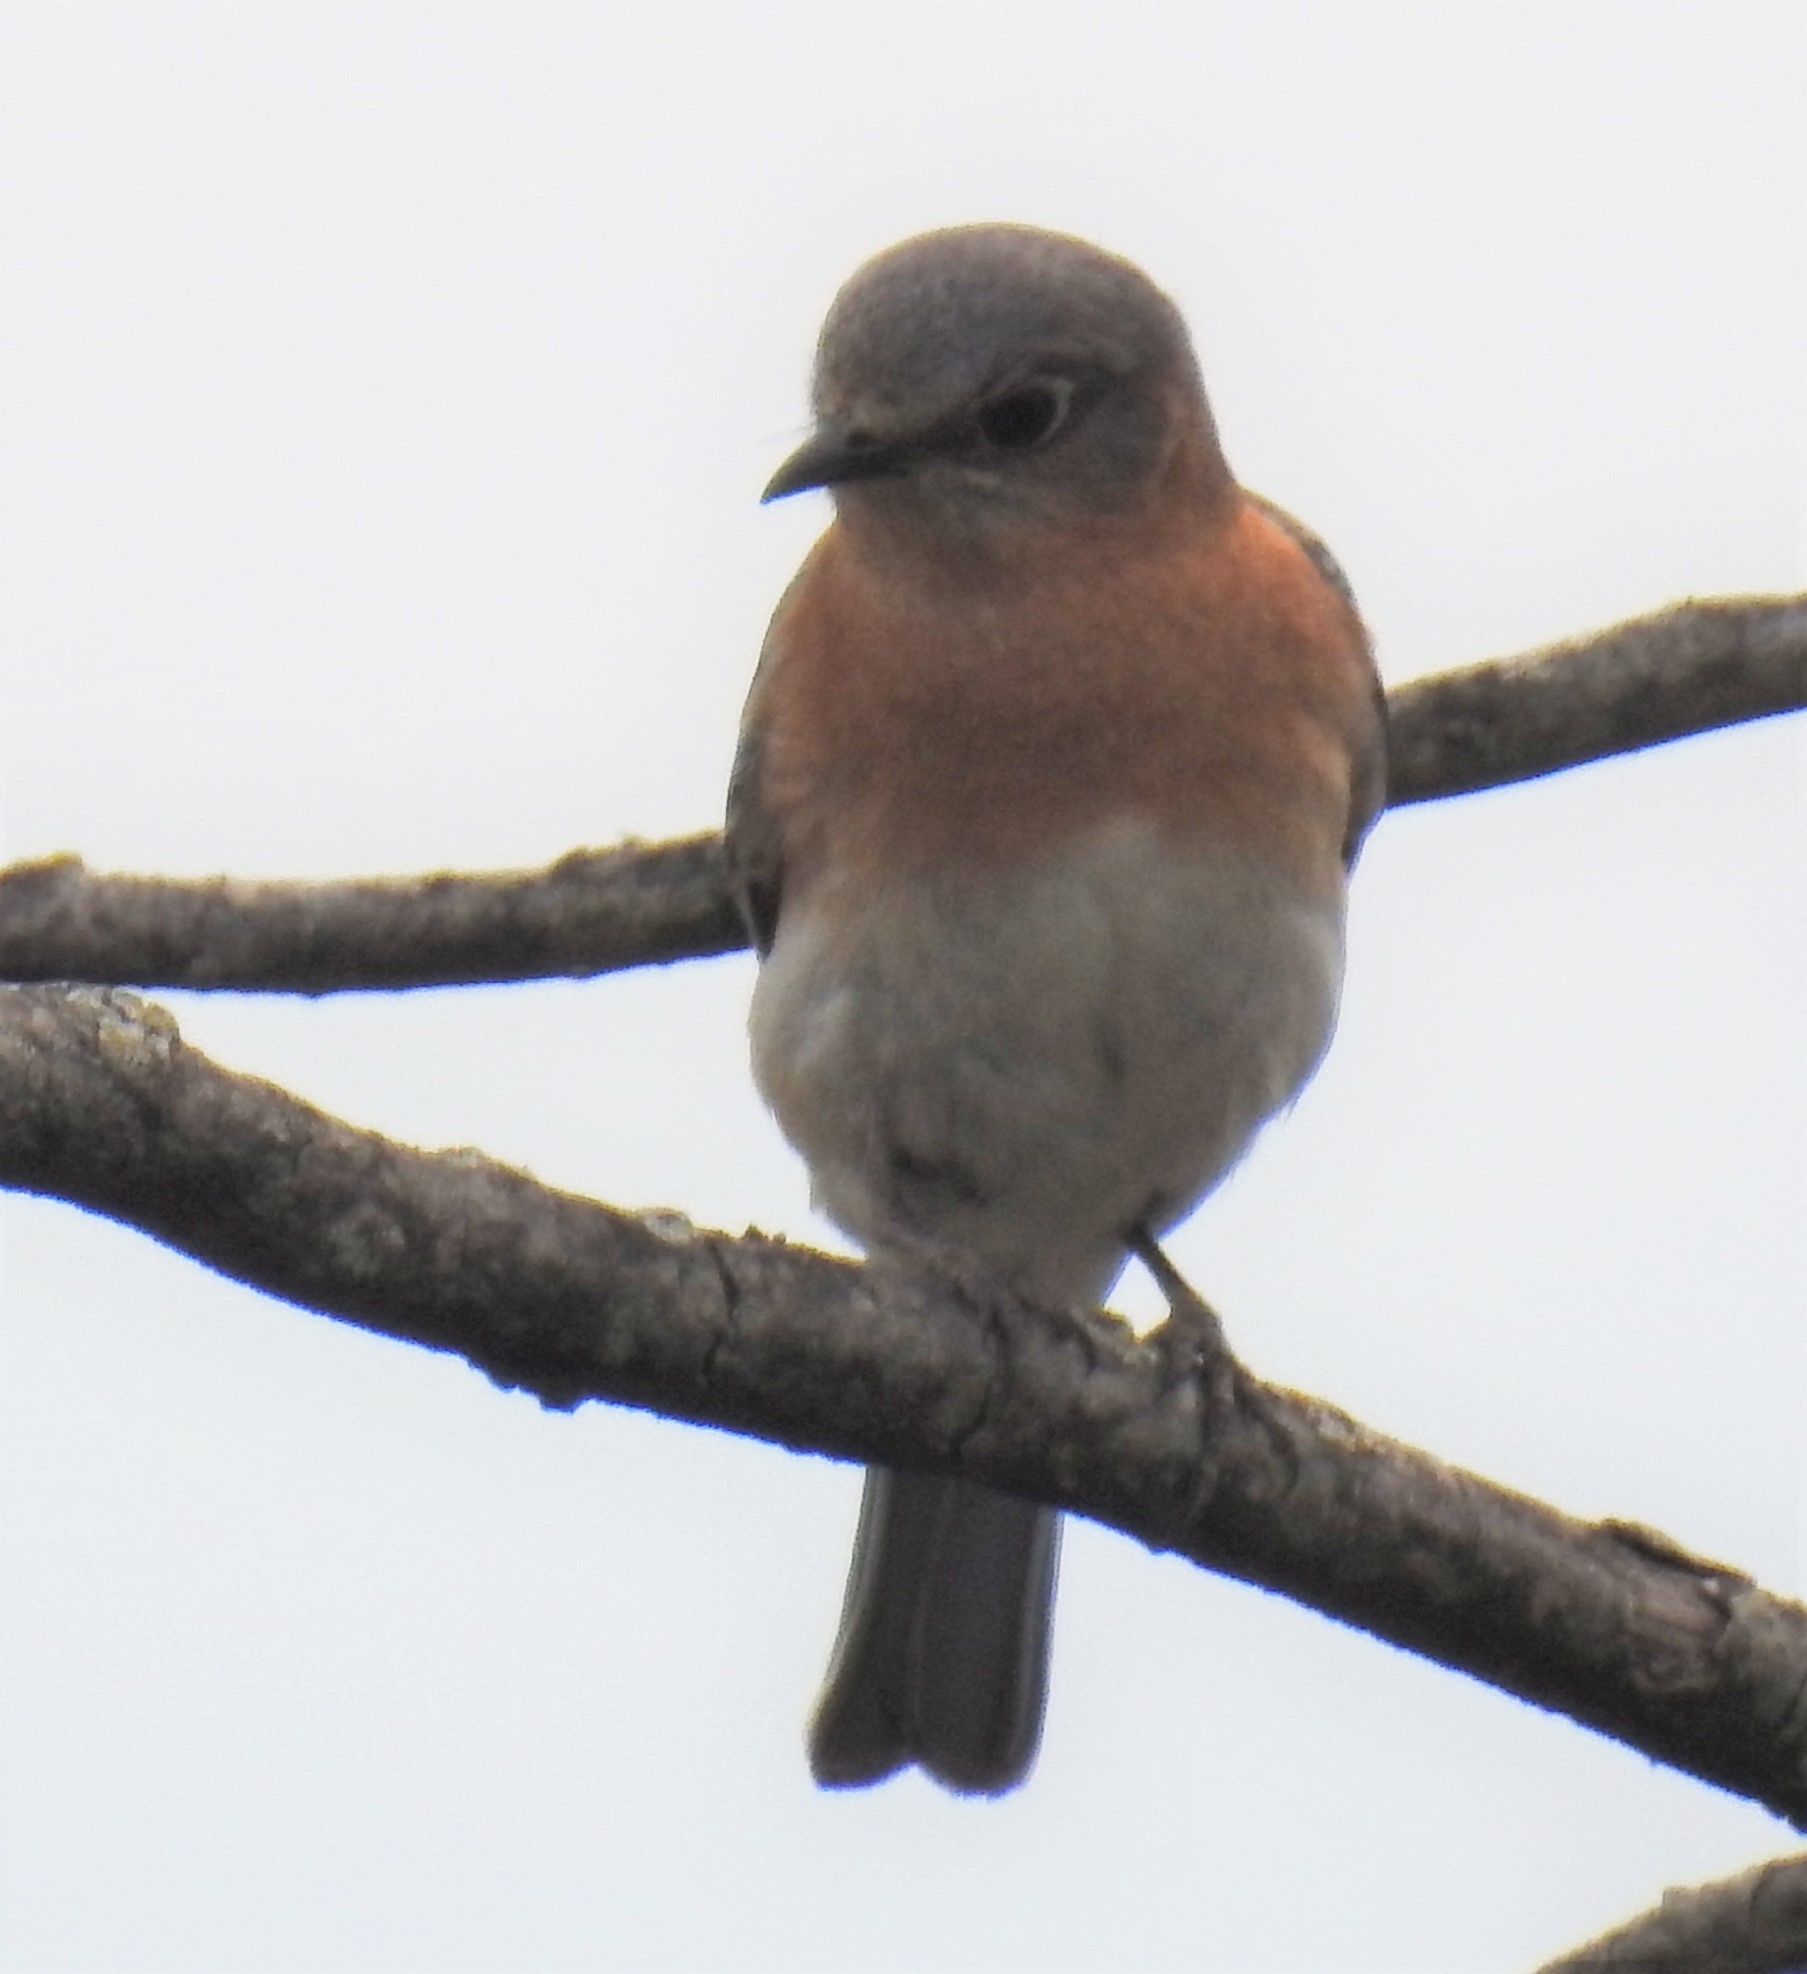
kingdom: Animalia
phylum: Chordata
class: Aves
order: Passeriformes
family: Turdidae
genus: Sialia
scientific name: Sialia sialis
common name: Eastern bluebird
